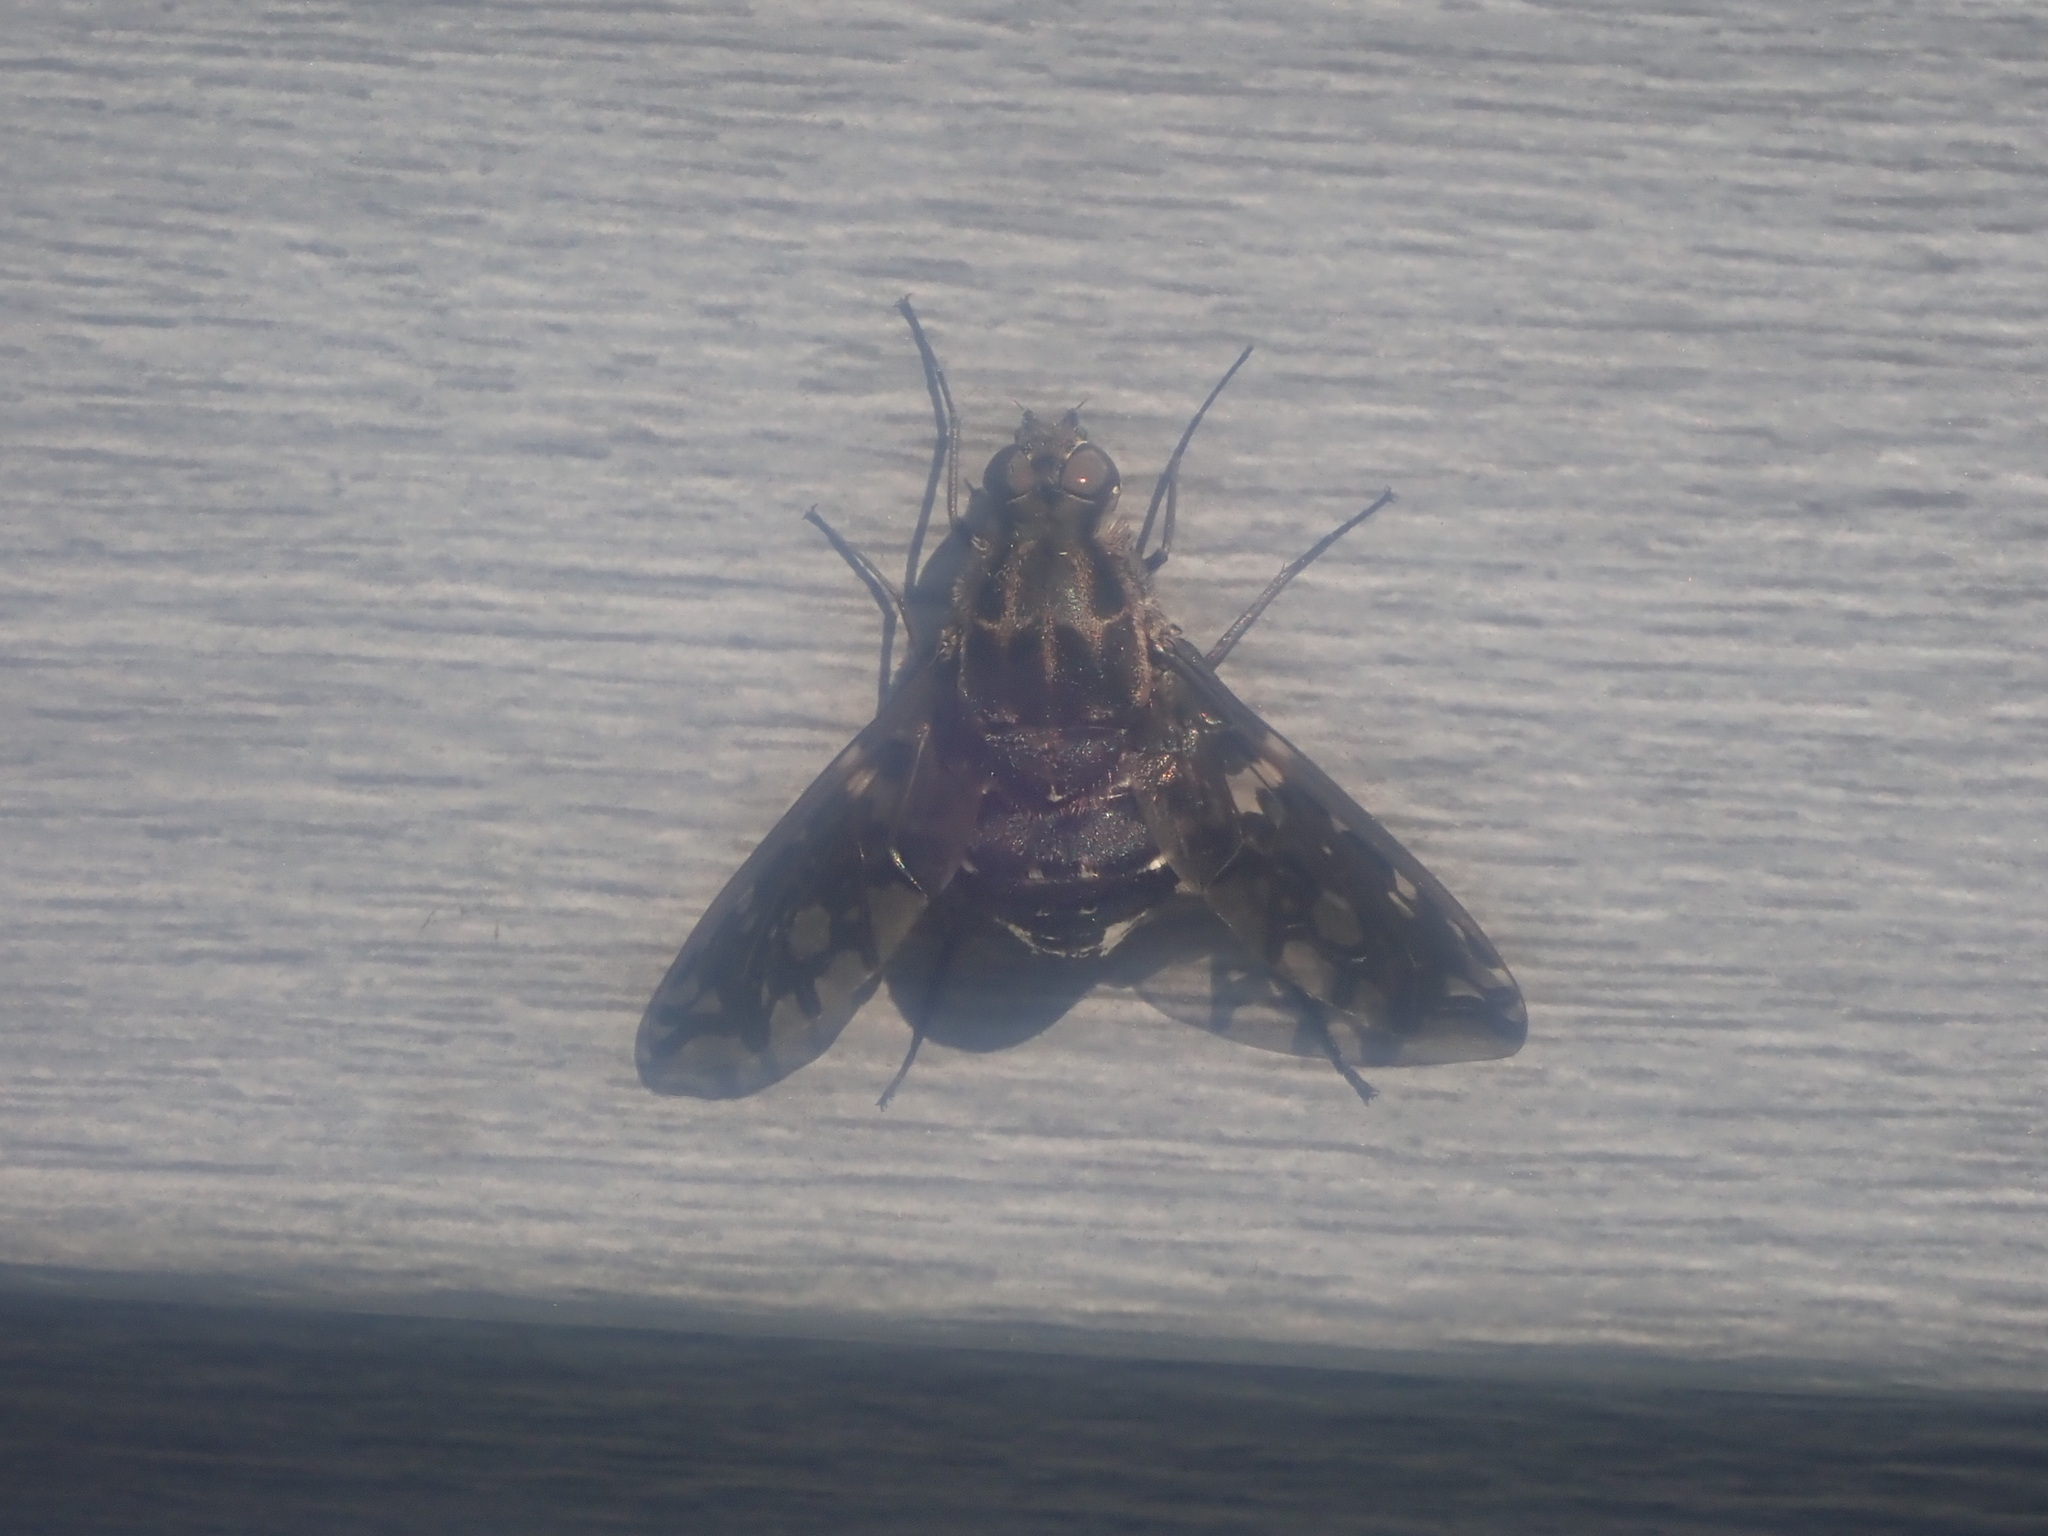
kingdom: Animalia
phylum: Arthropoda
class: Insecta
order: Diptera
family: Bombyliidae
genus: Xenox
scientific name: Xenox tigrinus
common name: Tiger bee fly
